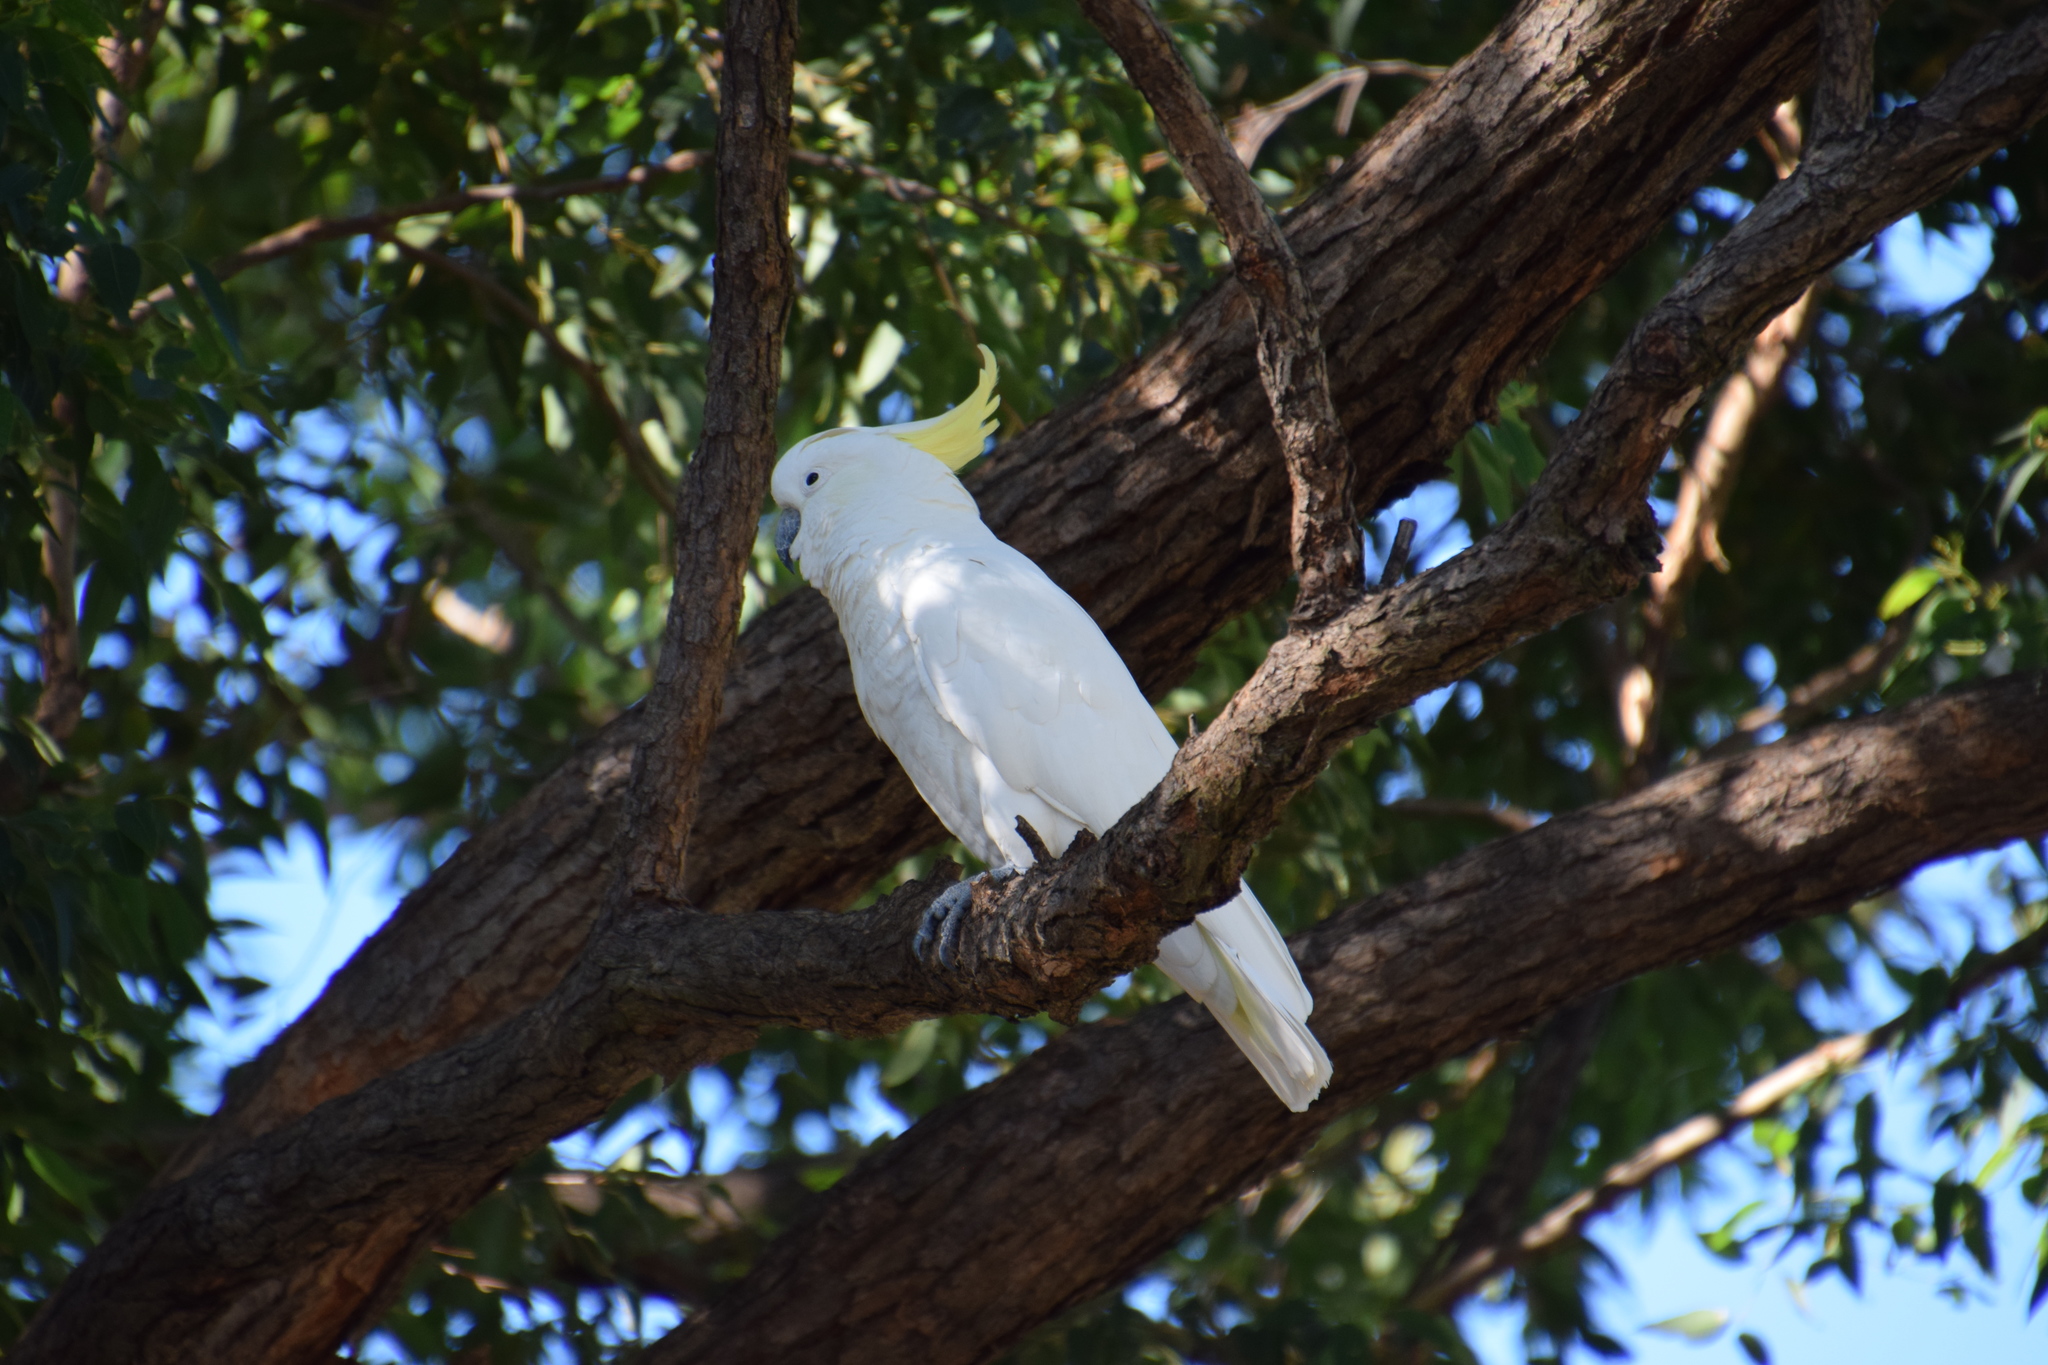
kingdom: Animalia
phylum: Chordata
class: Aves
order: Psittaciformes
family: Psittacidae
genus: Cacatua
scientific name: Cacatua galerita
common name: Sulphur-crested cockatoo
